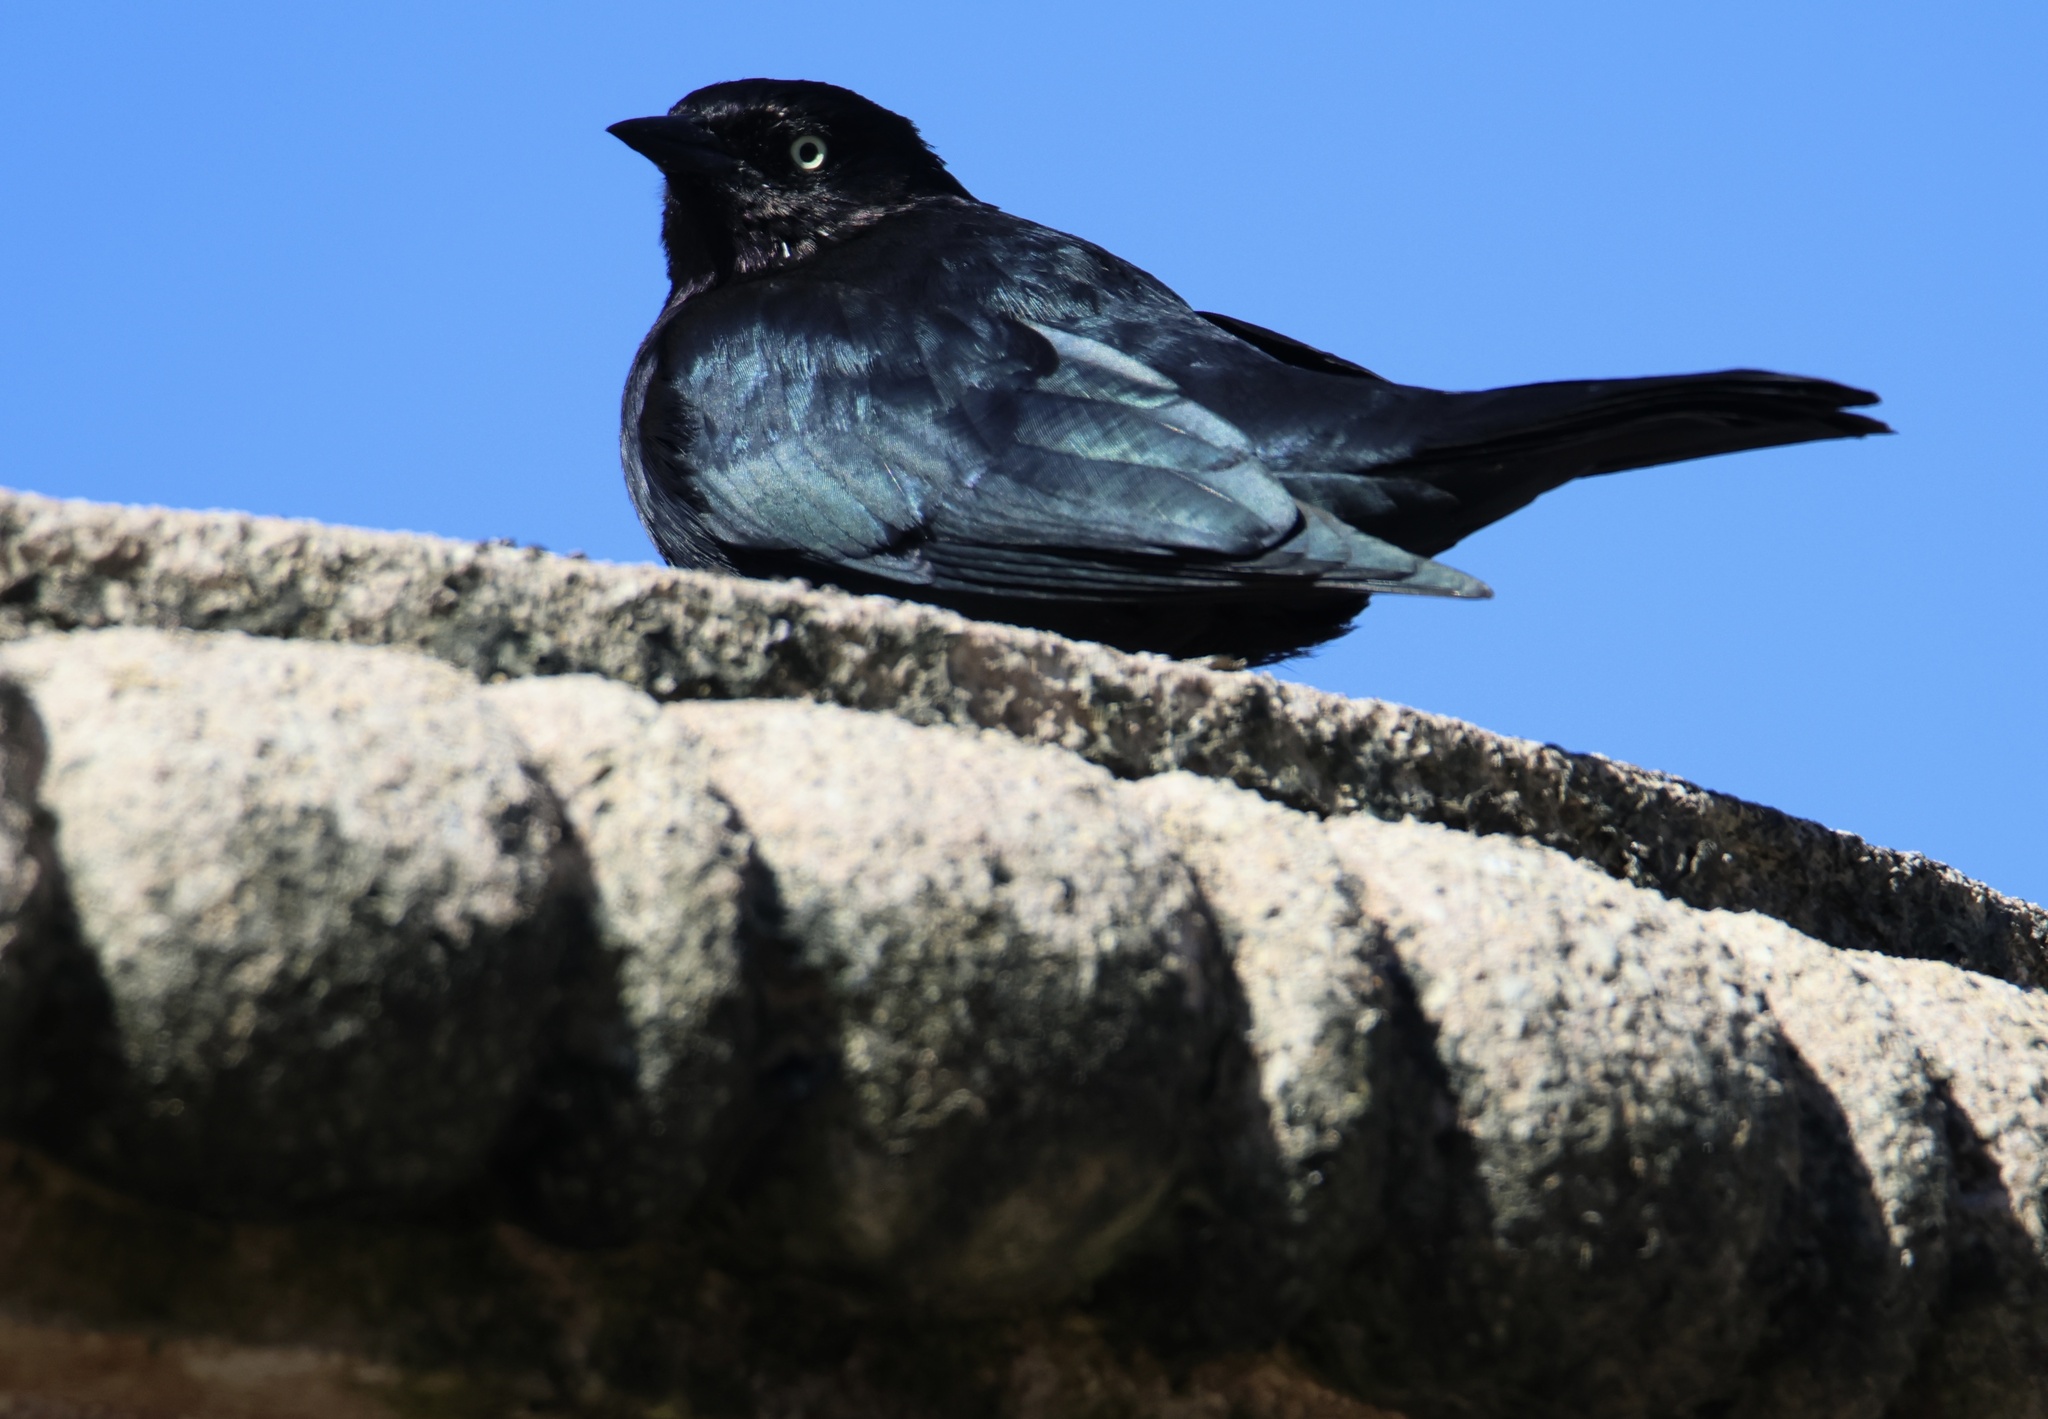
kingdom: Animalia
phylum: Chordata
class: Aves
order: Passeriformes
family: Icteridae
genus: Euphagus
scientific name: Euphagus cyanocephalus
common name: Brewer's blackbird
